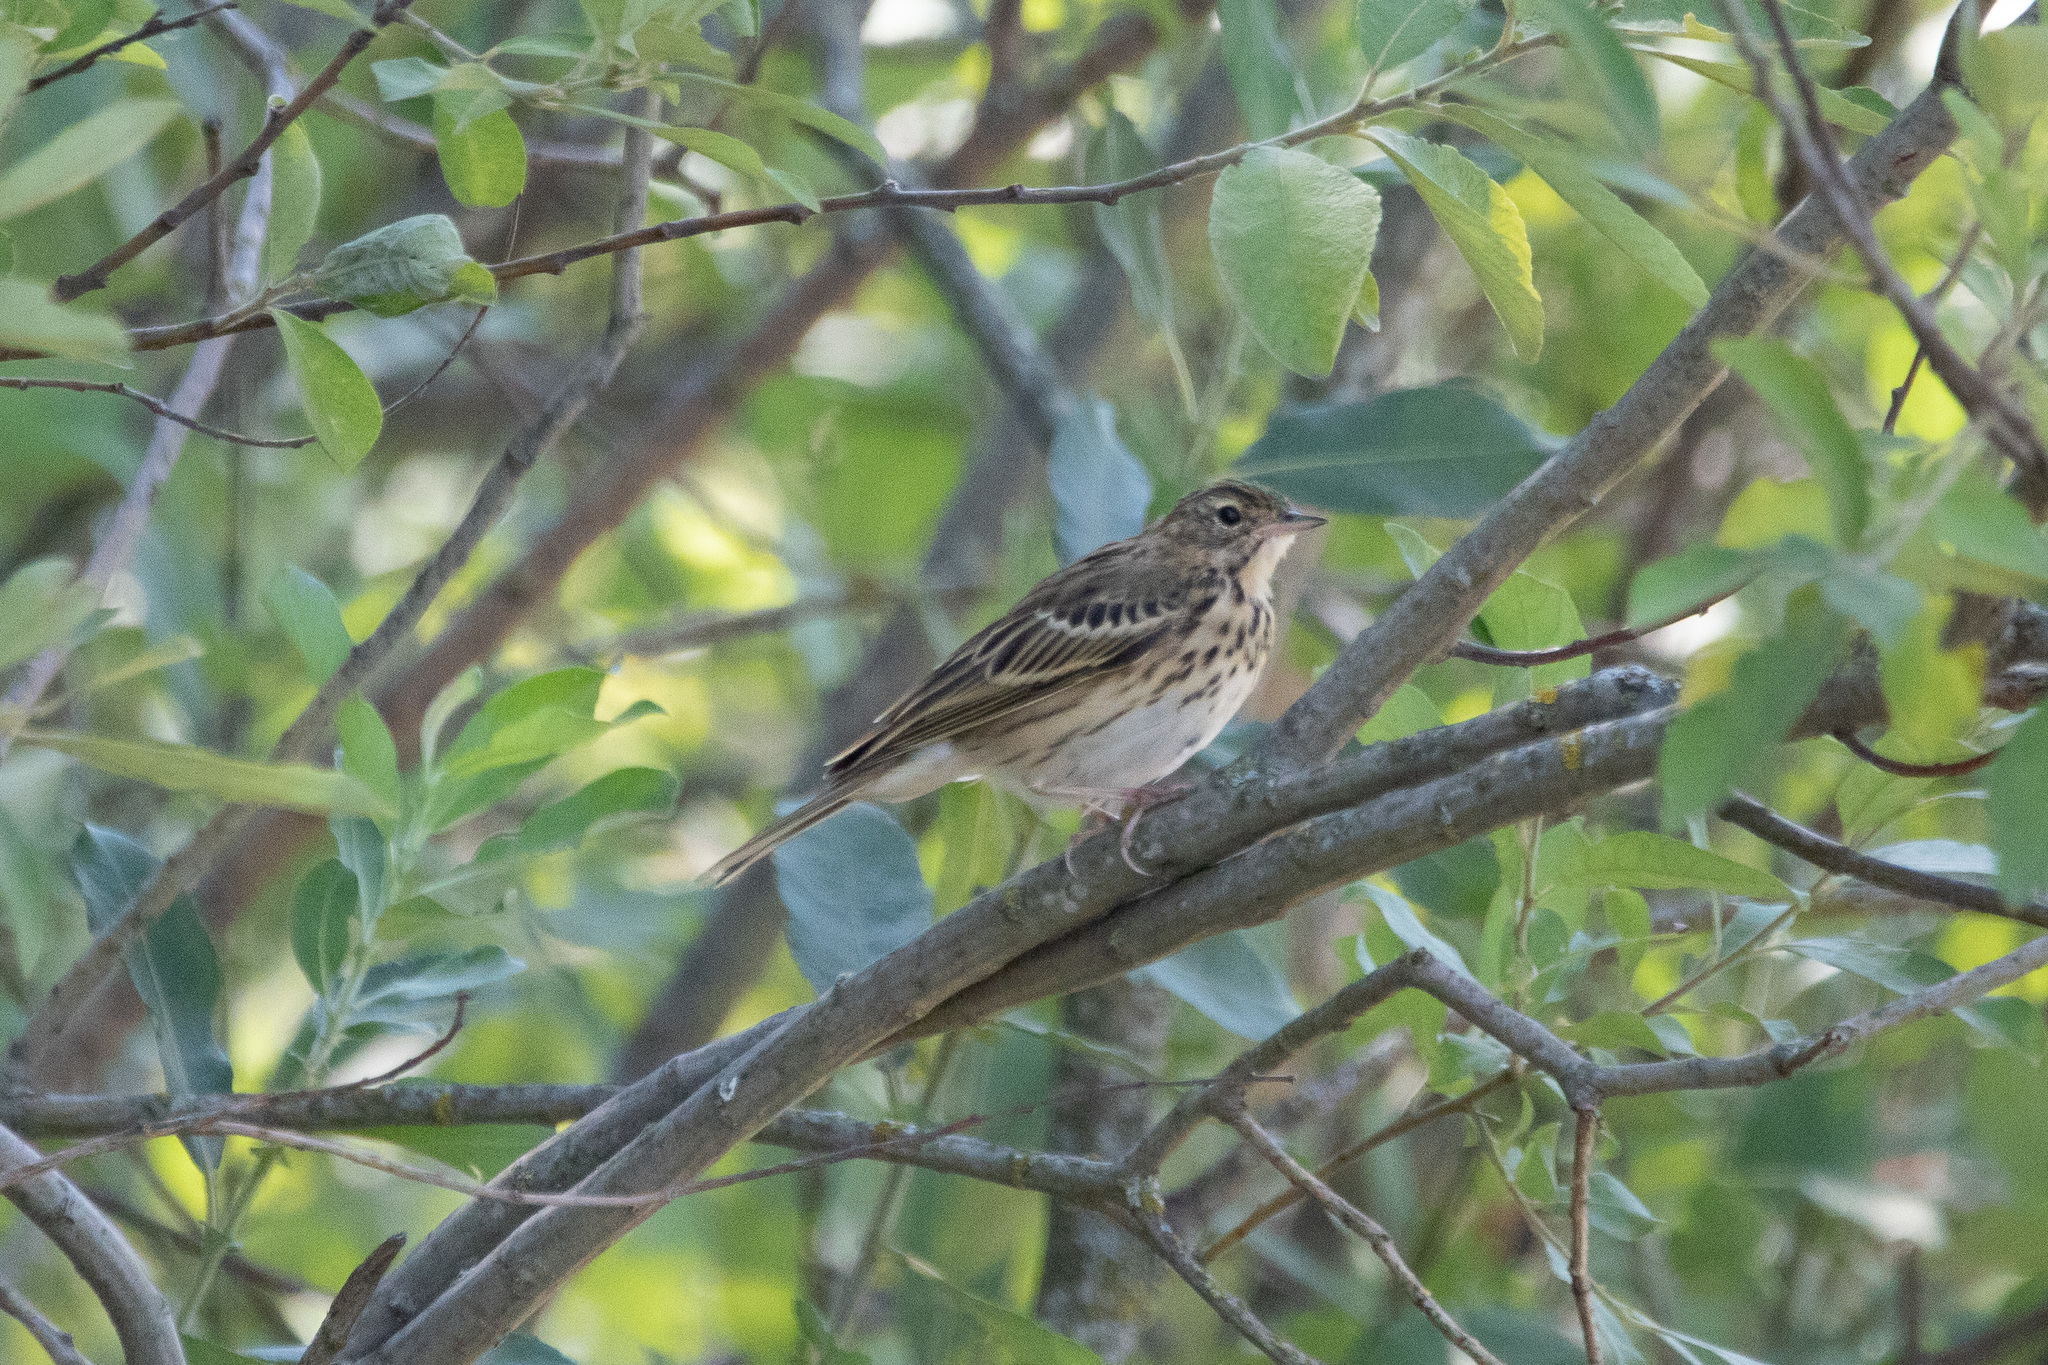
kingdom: Animalia
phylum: Chordata
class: Aves
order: Passeriformes
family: Motacillidae
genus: Anthus
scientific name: Anthus trivialis
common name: Tree pipit
